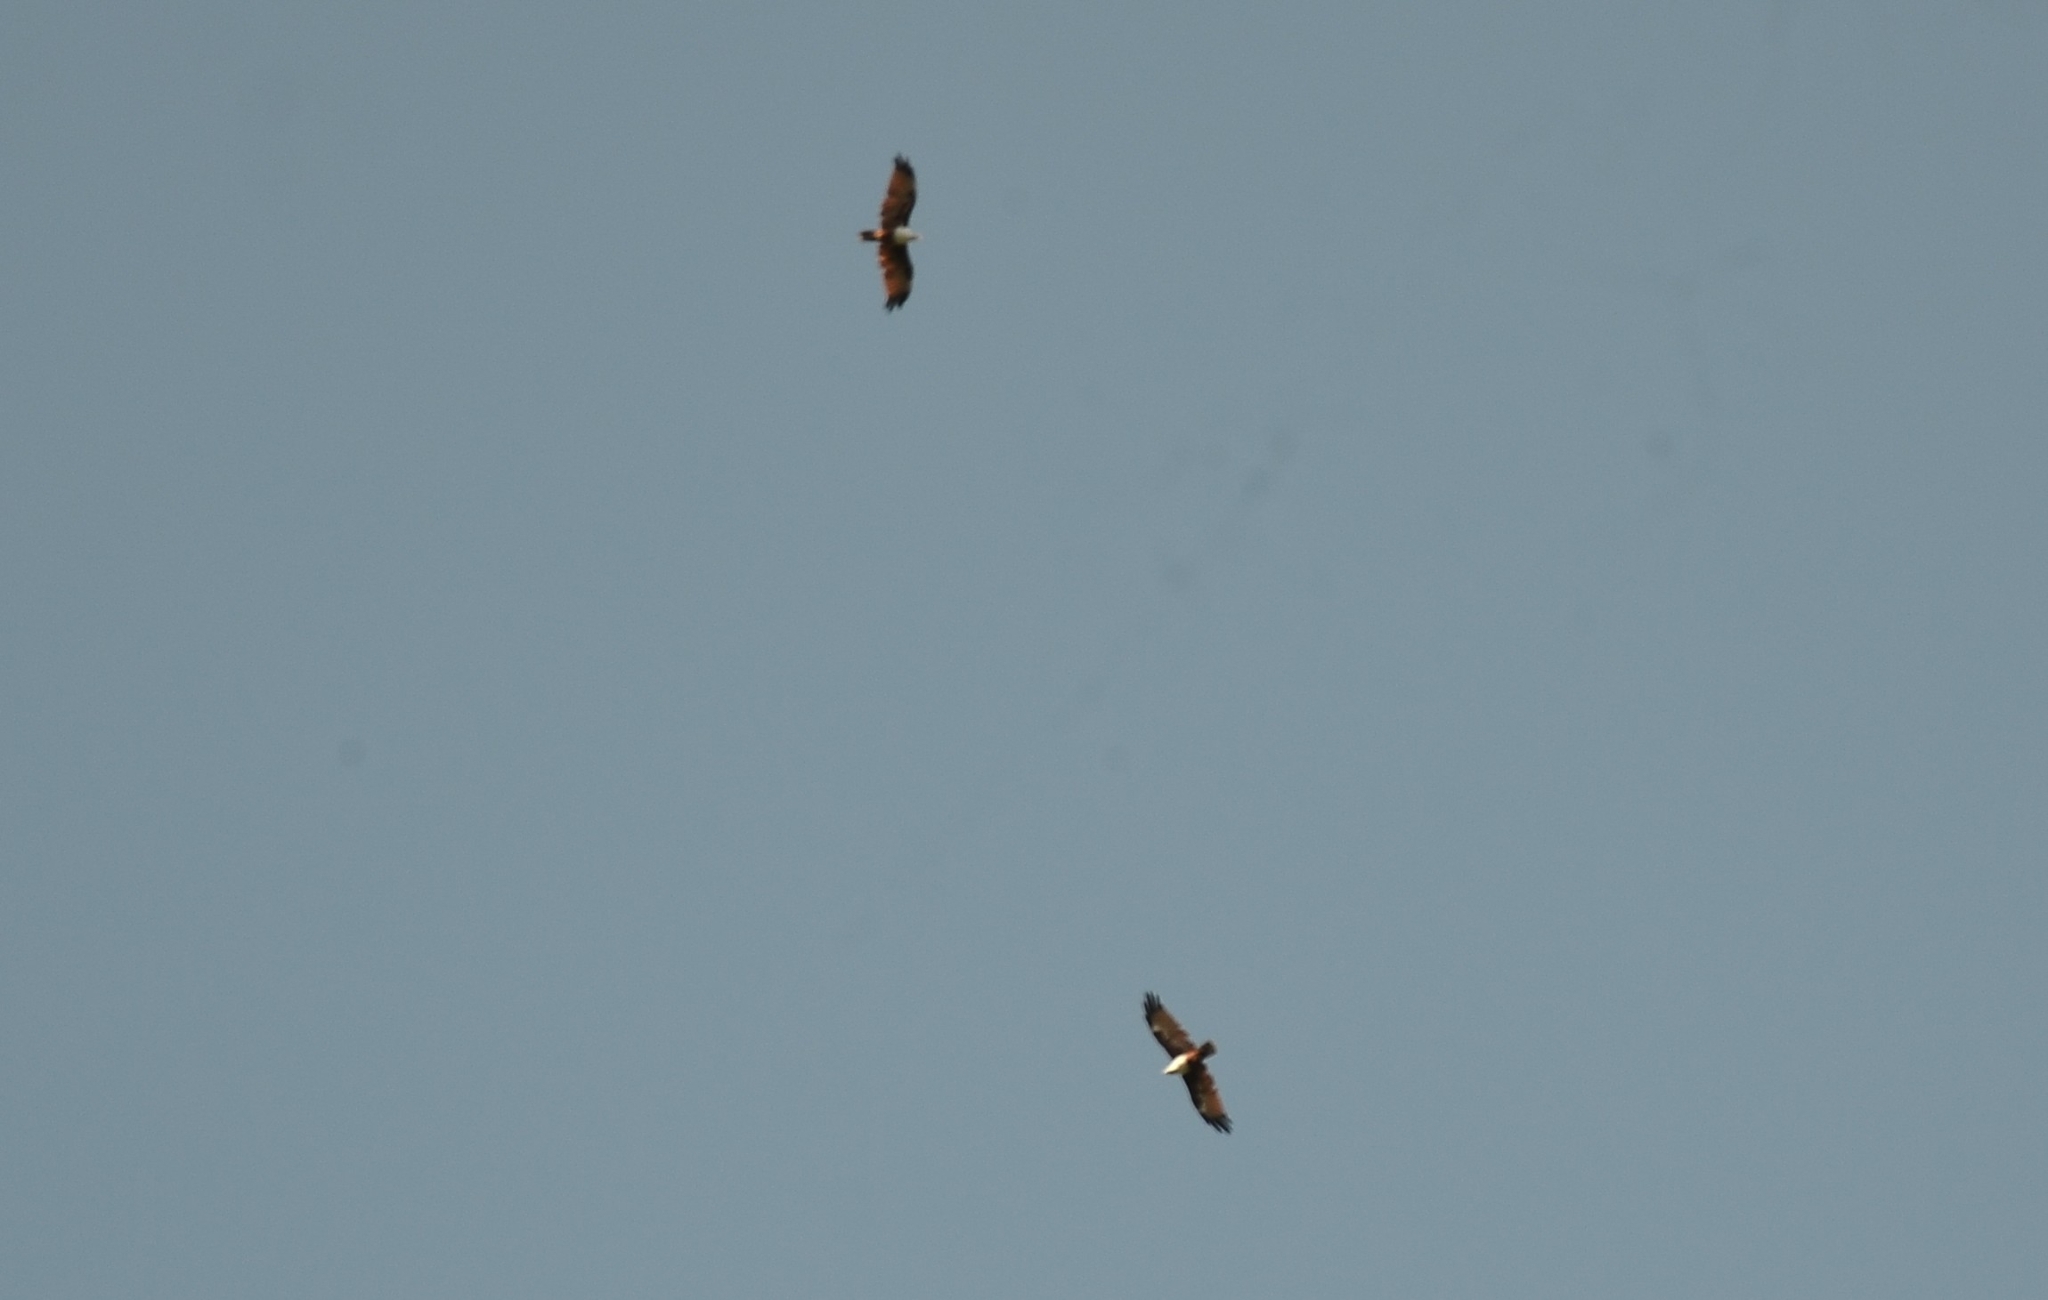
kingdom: Animalia
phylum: Chordata
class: Aves
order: Accipitriformes
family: Accipitridae
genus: Haliastur
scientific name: Haliastur indus
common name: Brahminy kite
